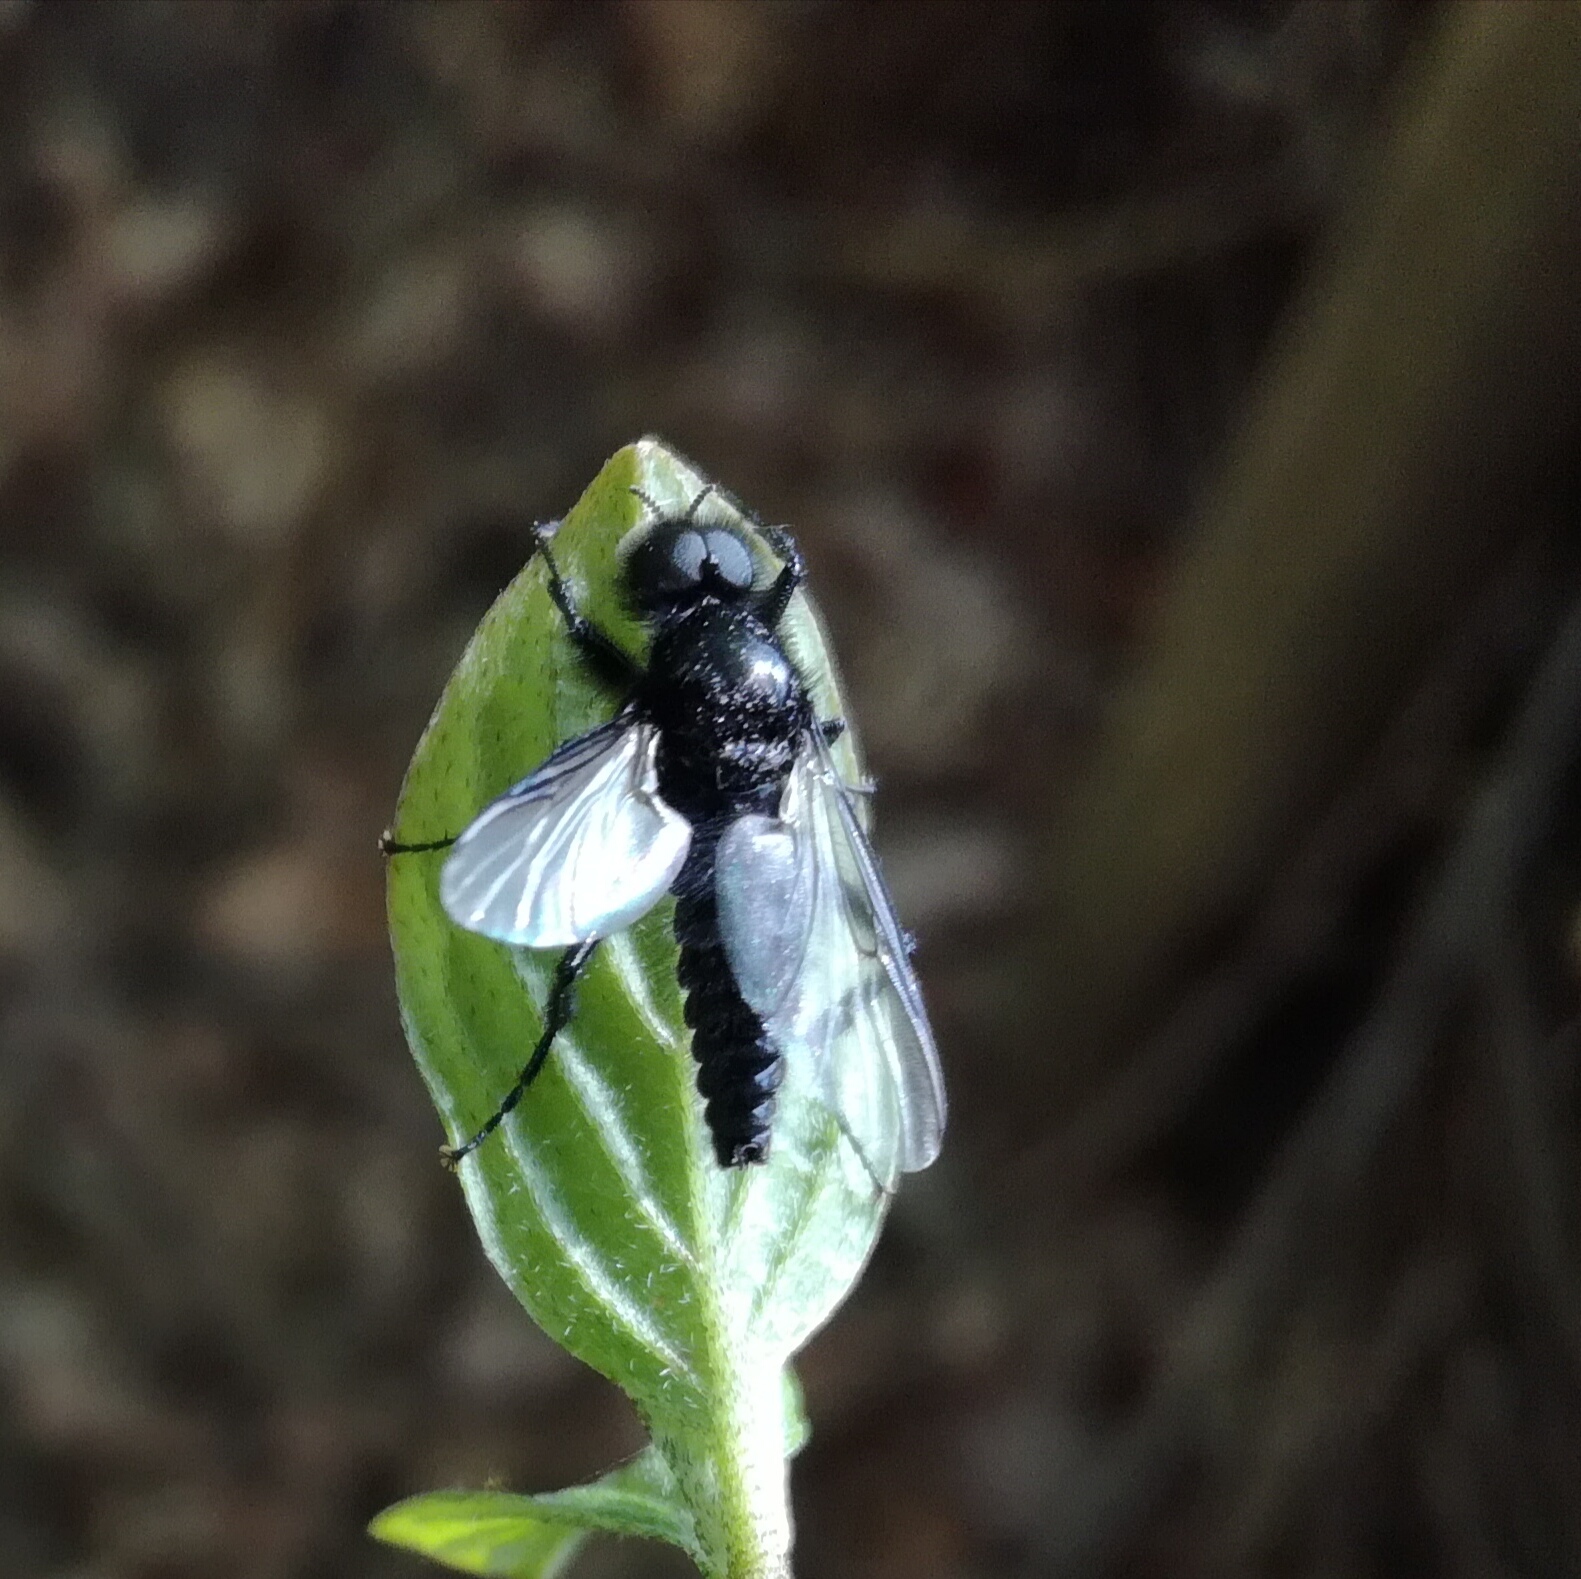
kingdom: Animalia
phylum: Arthropoda
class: Insecta
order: Diptera
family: Bibionidae
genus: Bibio
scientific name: Bibio marci
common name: St marks fly
